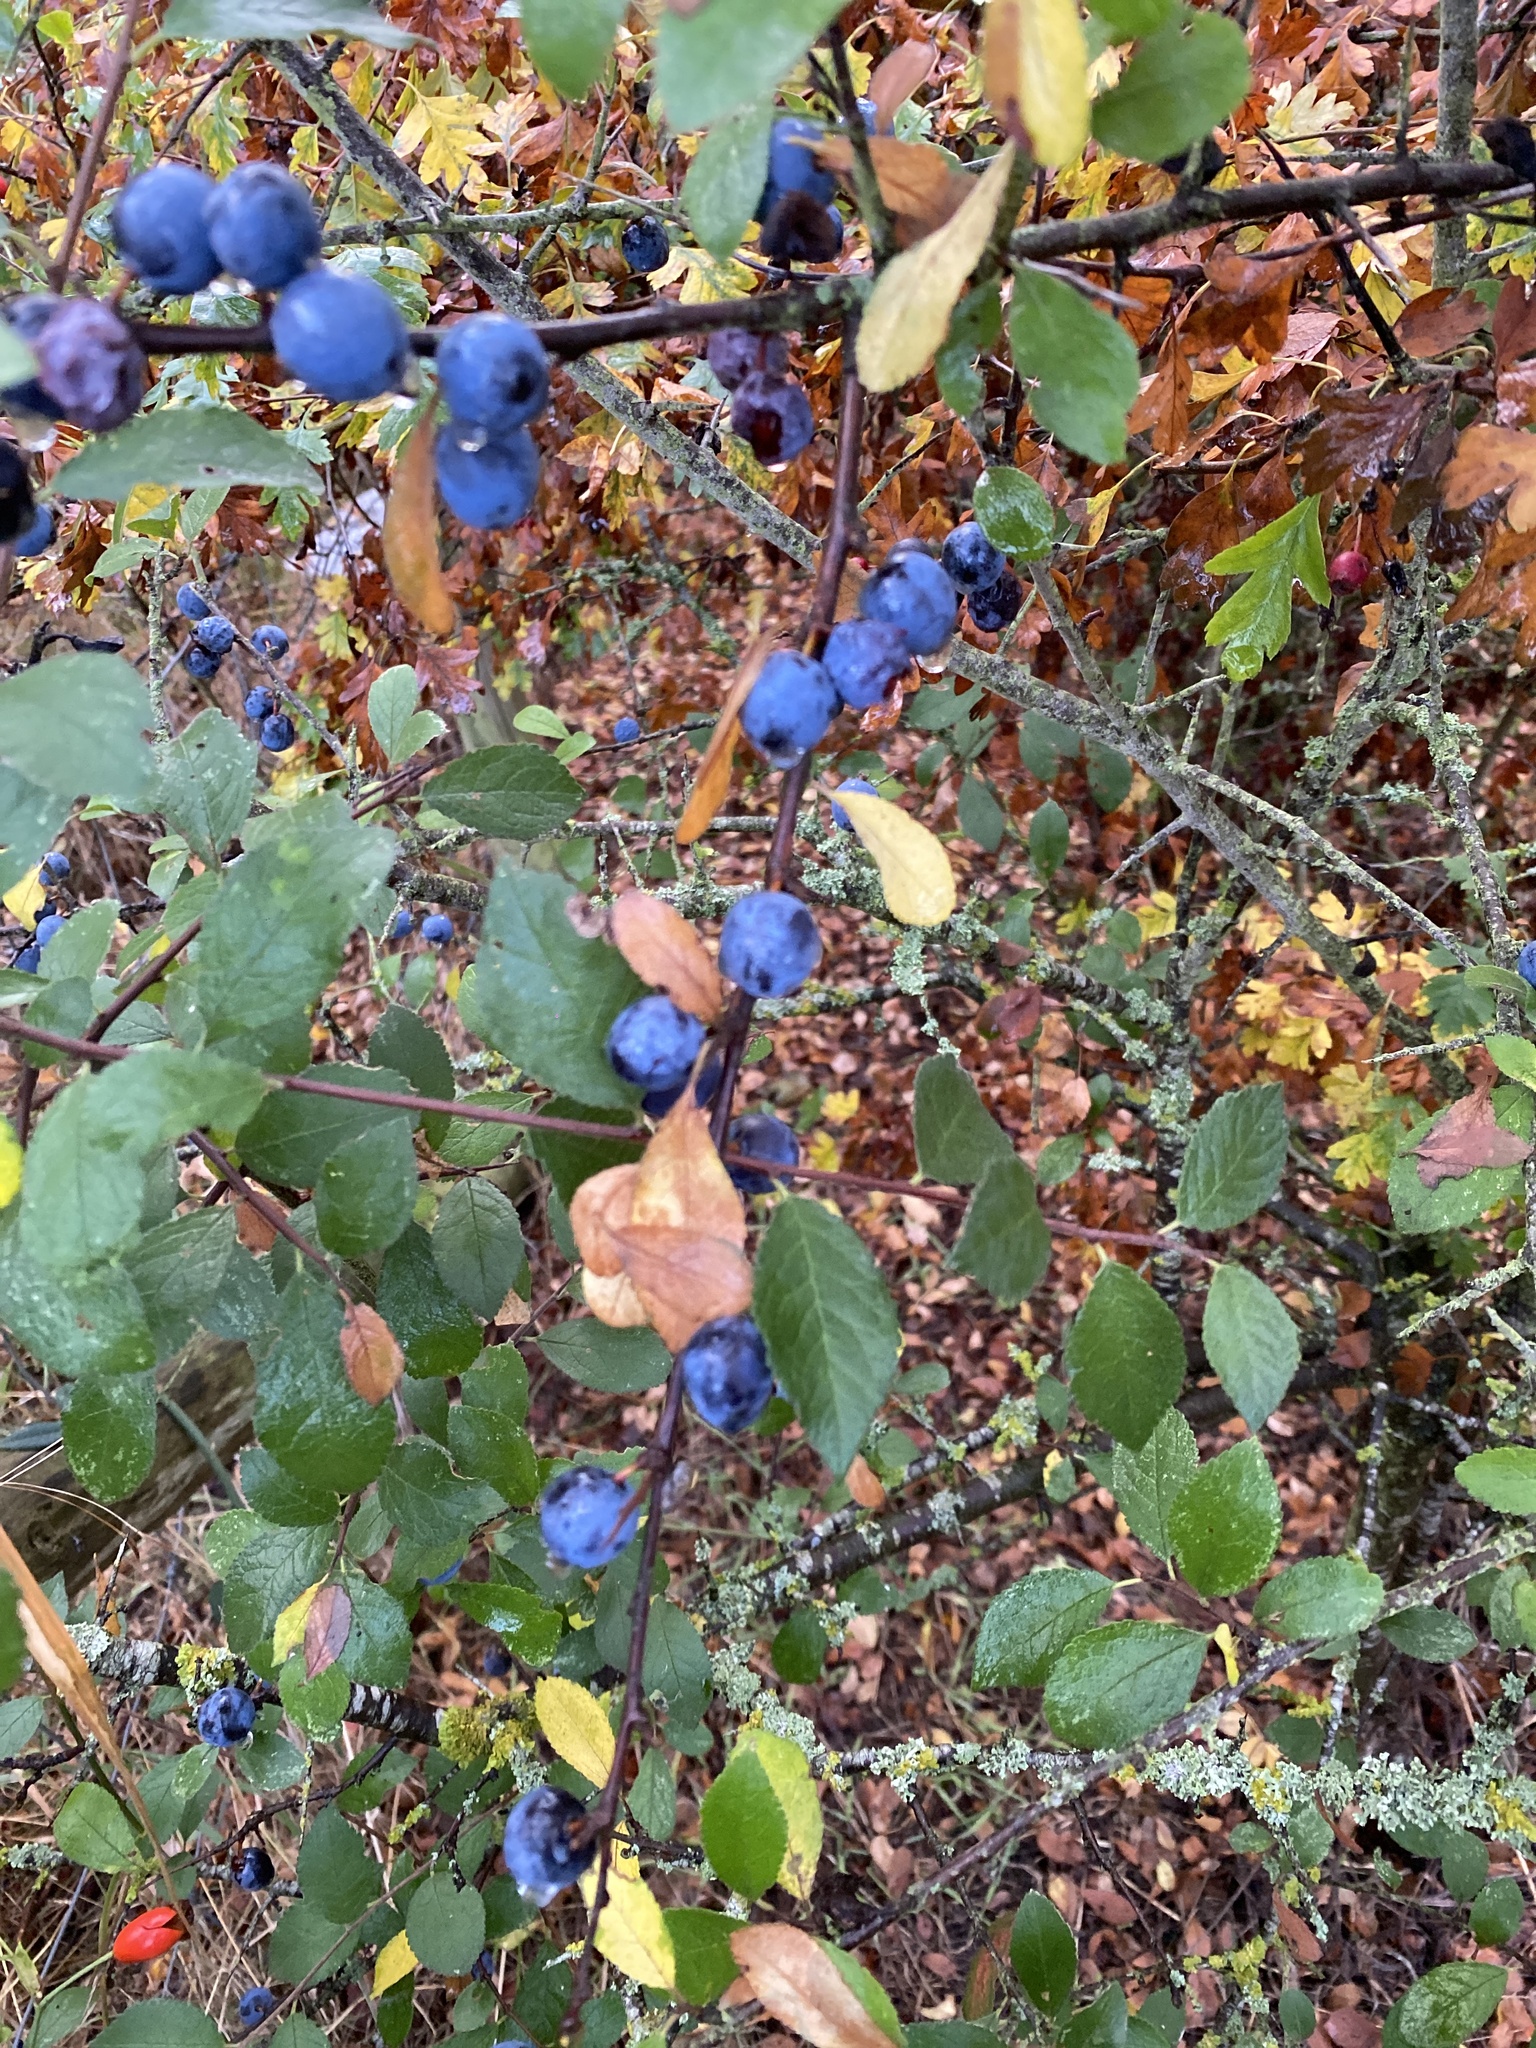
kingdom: Plantae
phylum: Tracheophyta
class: Magnoliopsida
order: Rosales
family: Rosaceae
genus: Prunus
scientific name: Prunus spinosa
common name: Blackthorn
